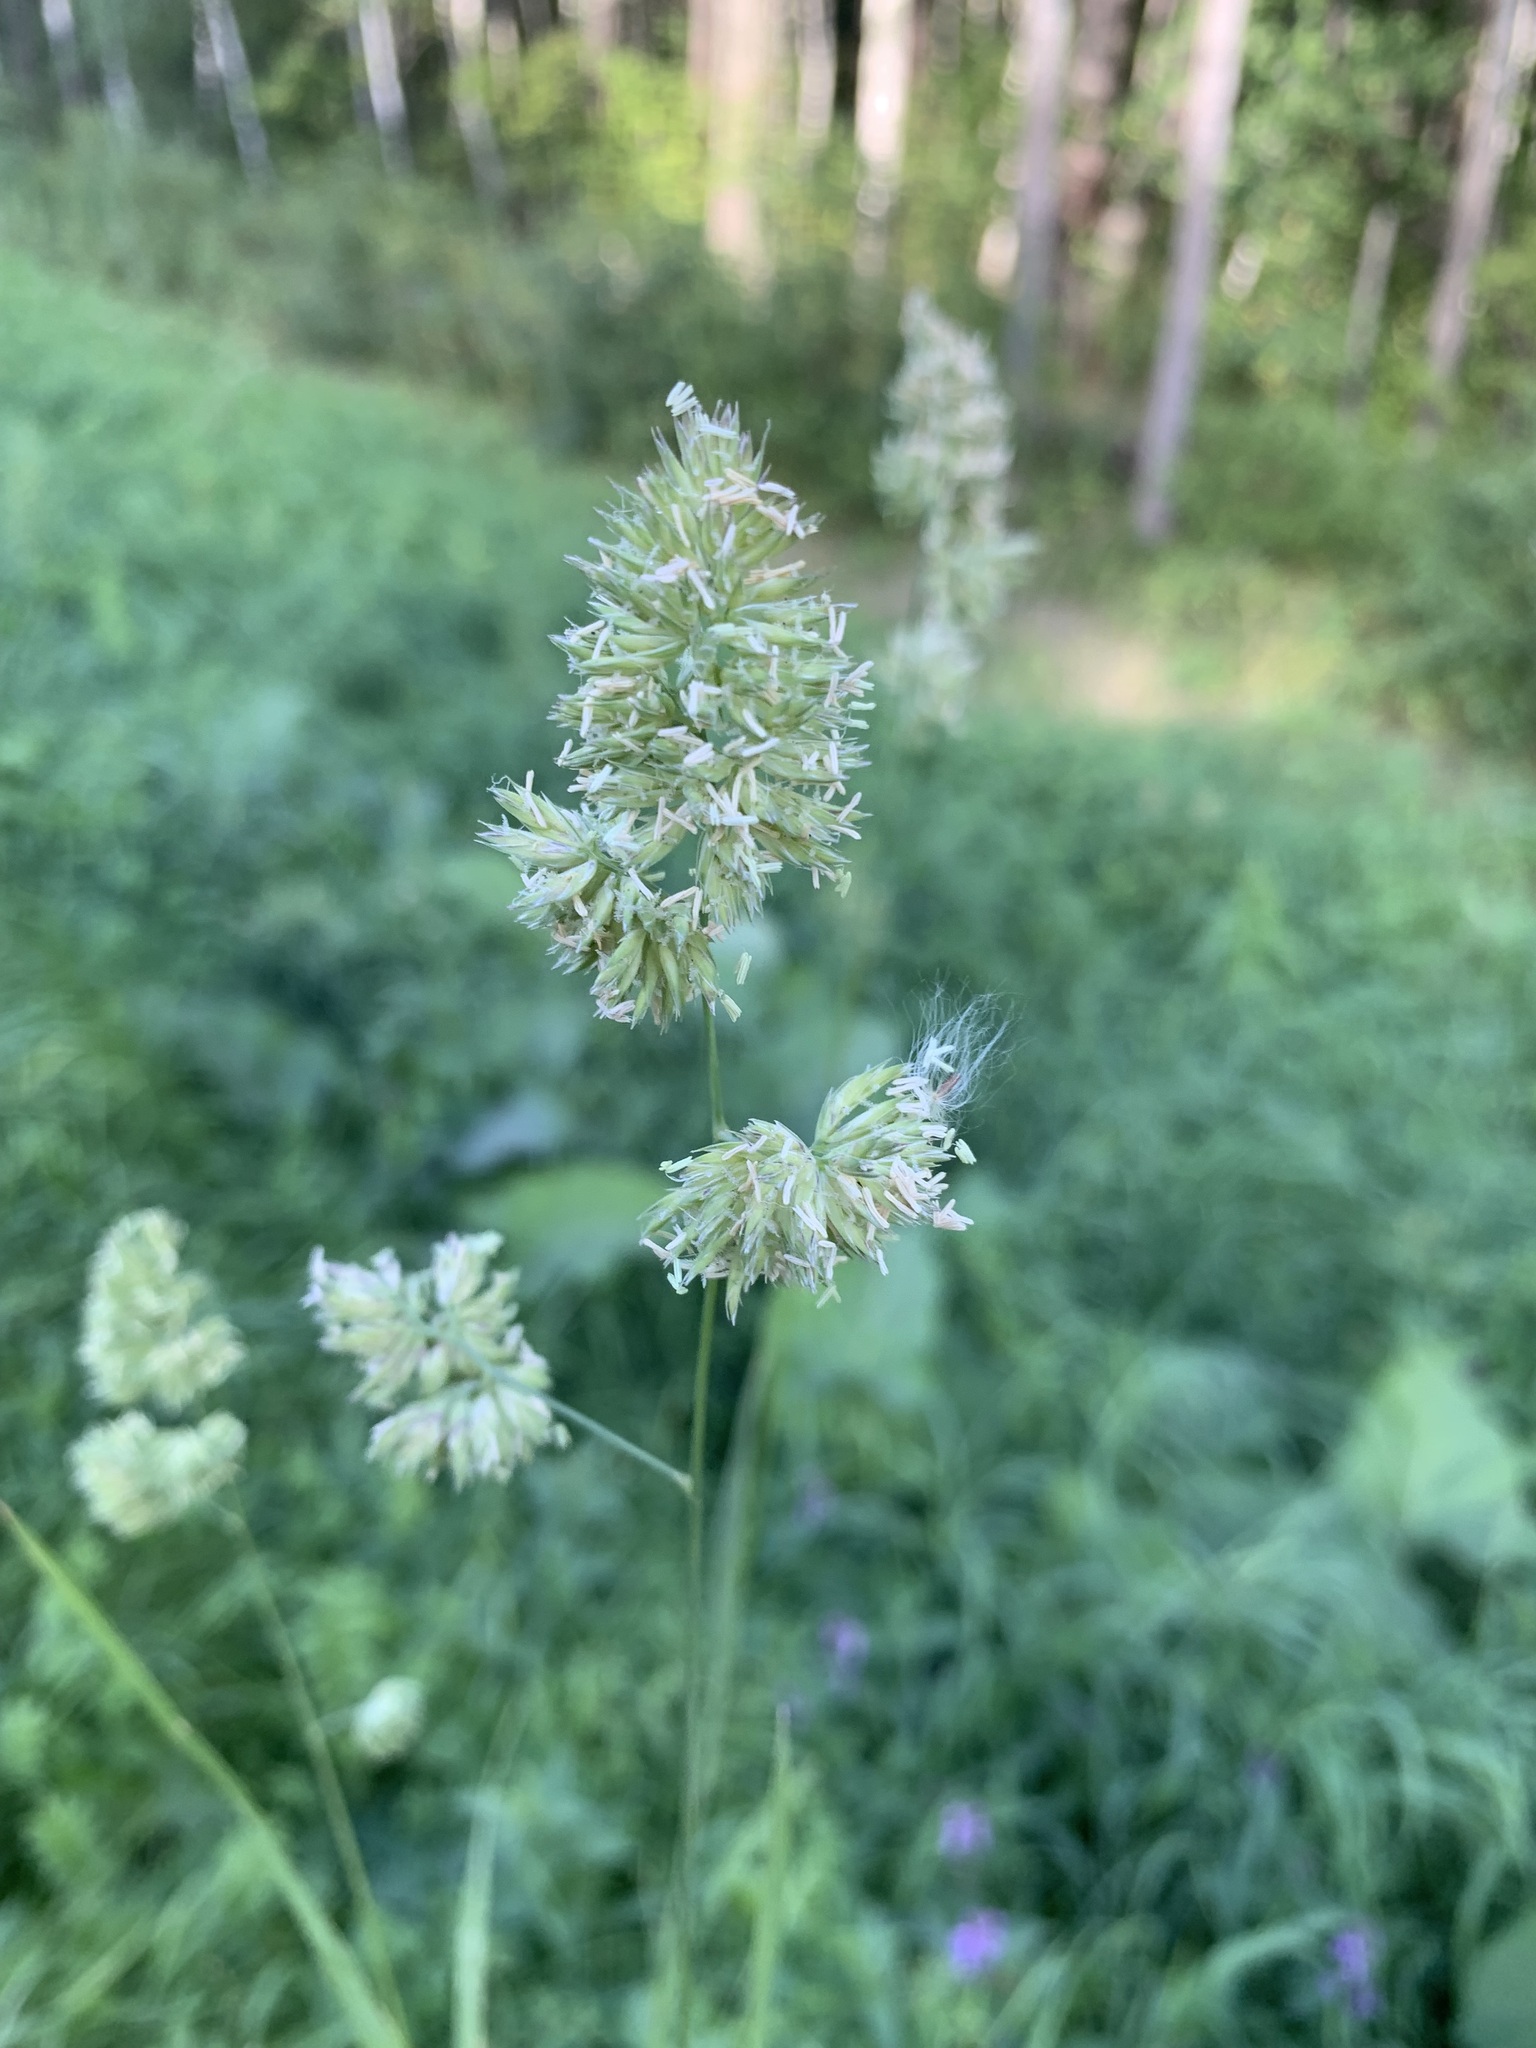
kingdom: Plantae
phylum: Tracheophyta
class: Liliopsida
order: Poales
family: Poaceae
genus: Dactylis
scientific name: Dactylis glomerata
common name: Orchardgrass
